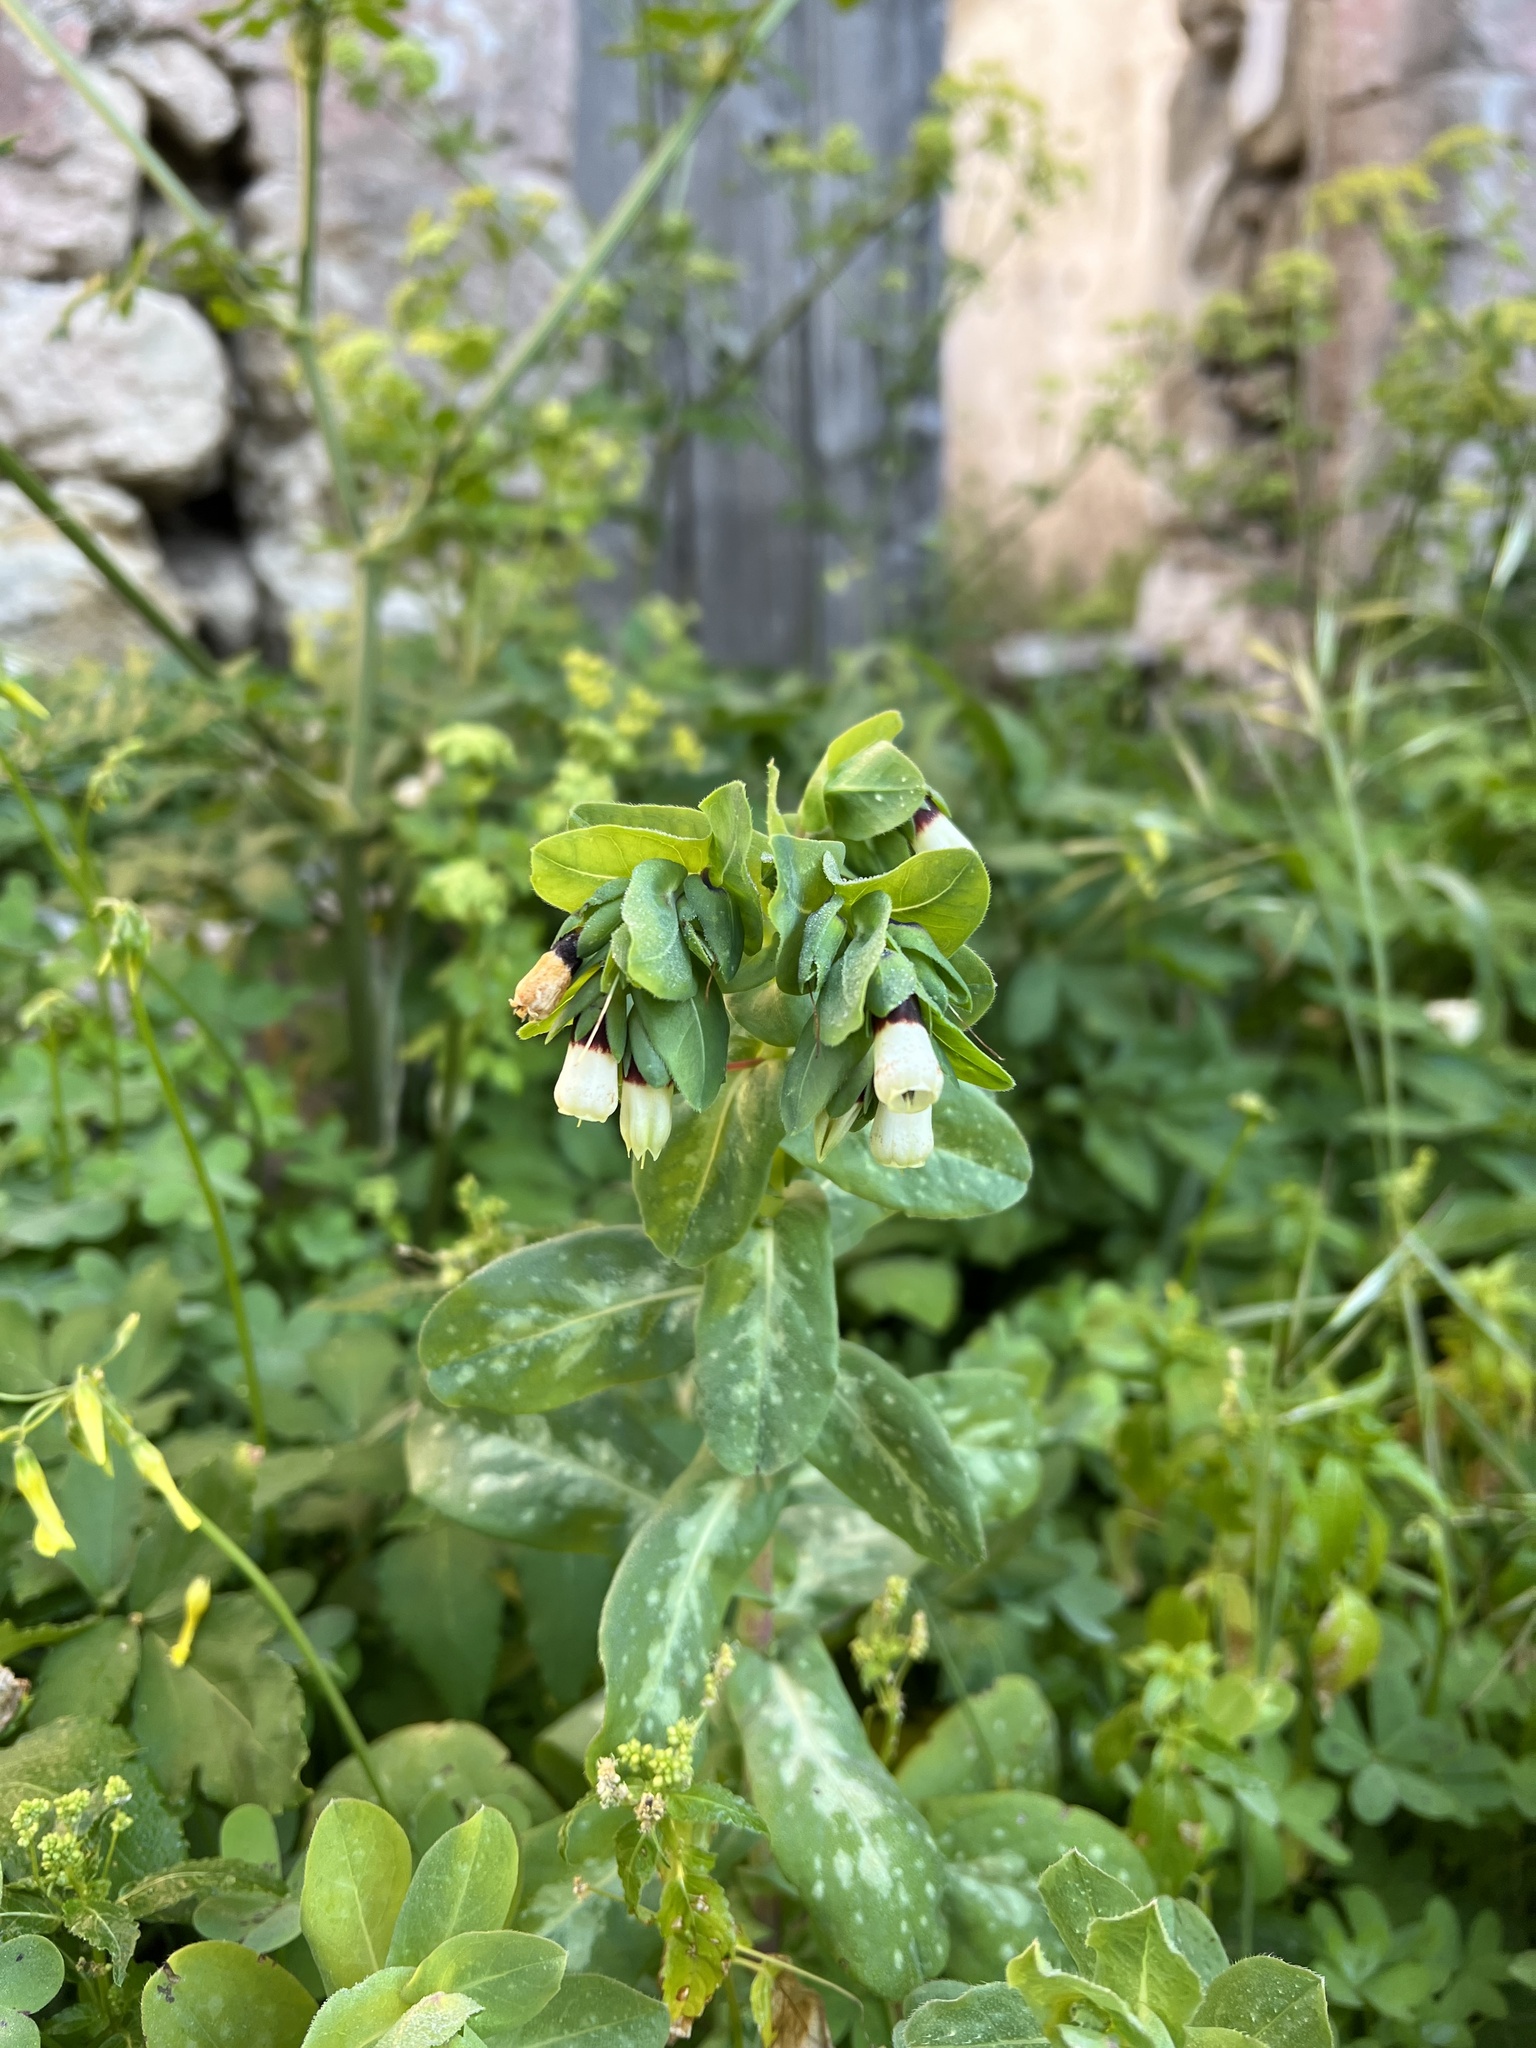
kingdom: Plantae
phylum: Tracheophyta
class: Magnoliopsida
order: Boraginales
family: Boraginaceae
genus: Cerinthe
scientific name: Cerinthe major
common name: Greater honeywort
